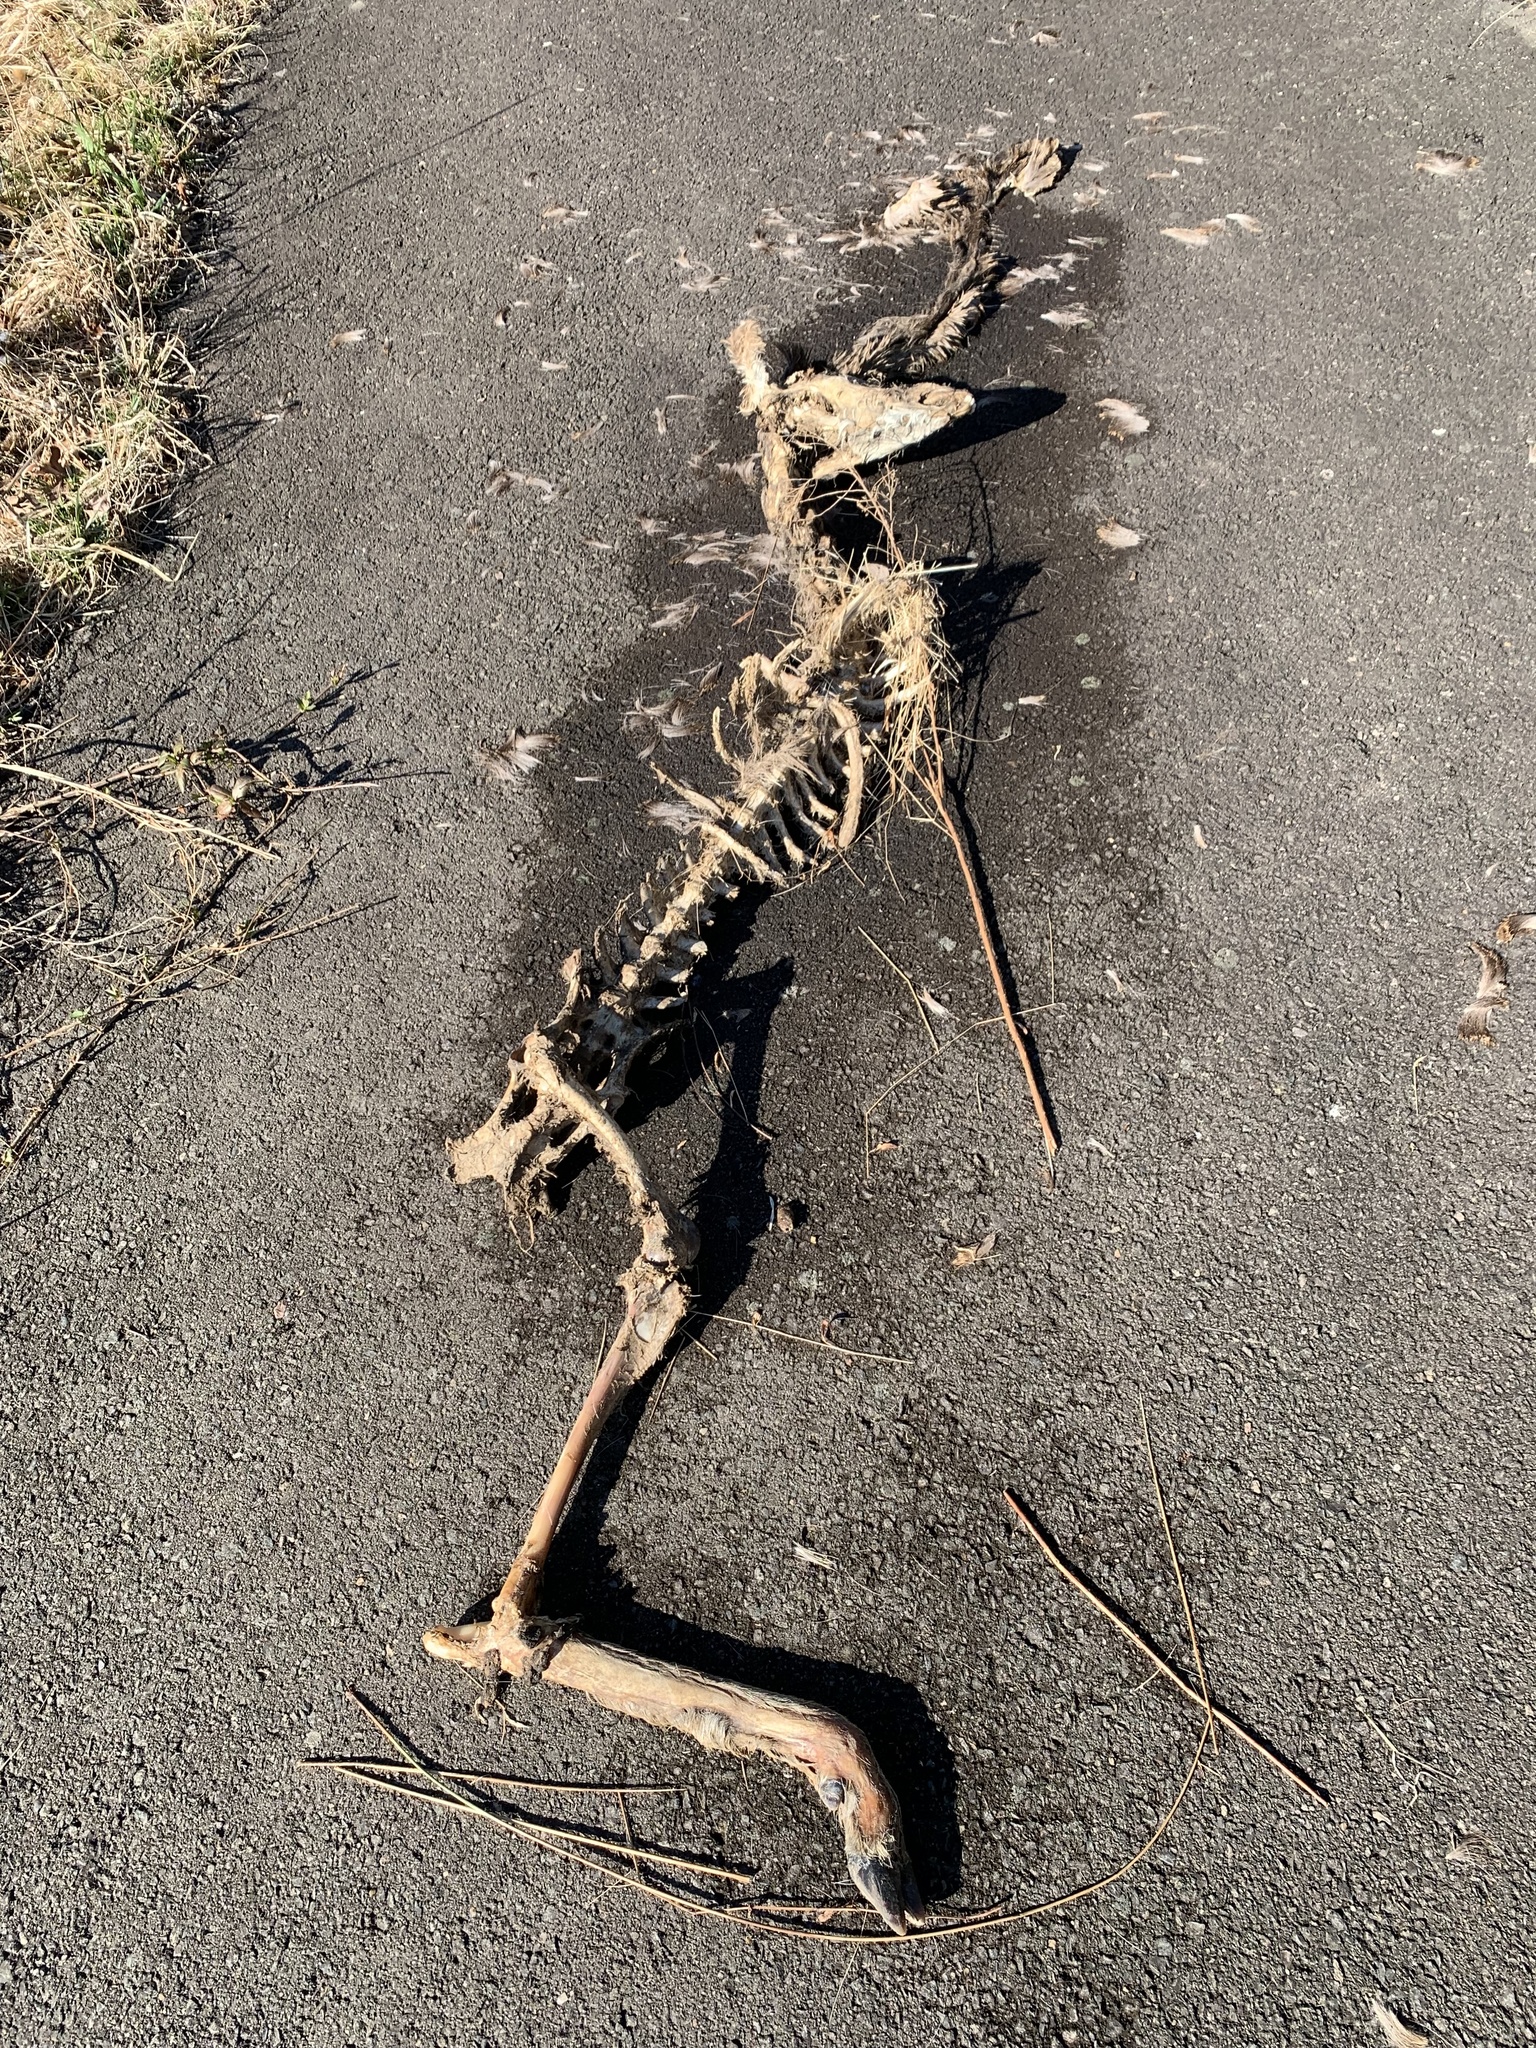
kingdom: Animalia
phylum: Chordata
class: Mammalia
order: Artiodactyla
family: Cervidae
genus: Odocoileus
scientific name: Odocoileus virginianus
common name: White-tailed deer
